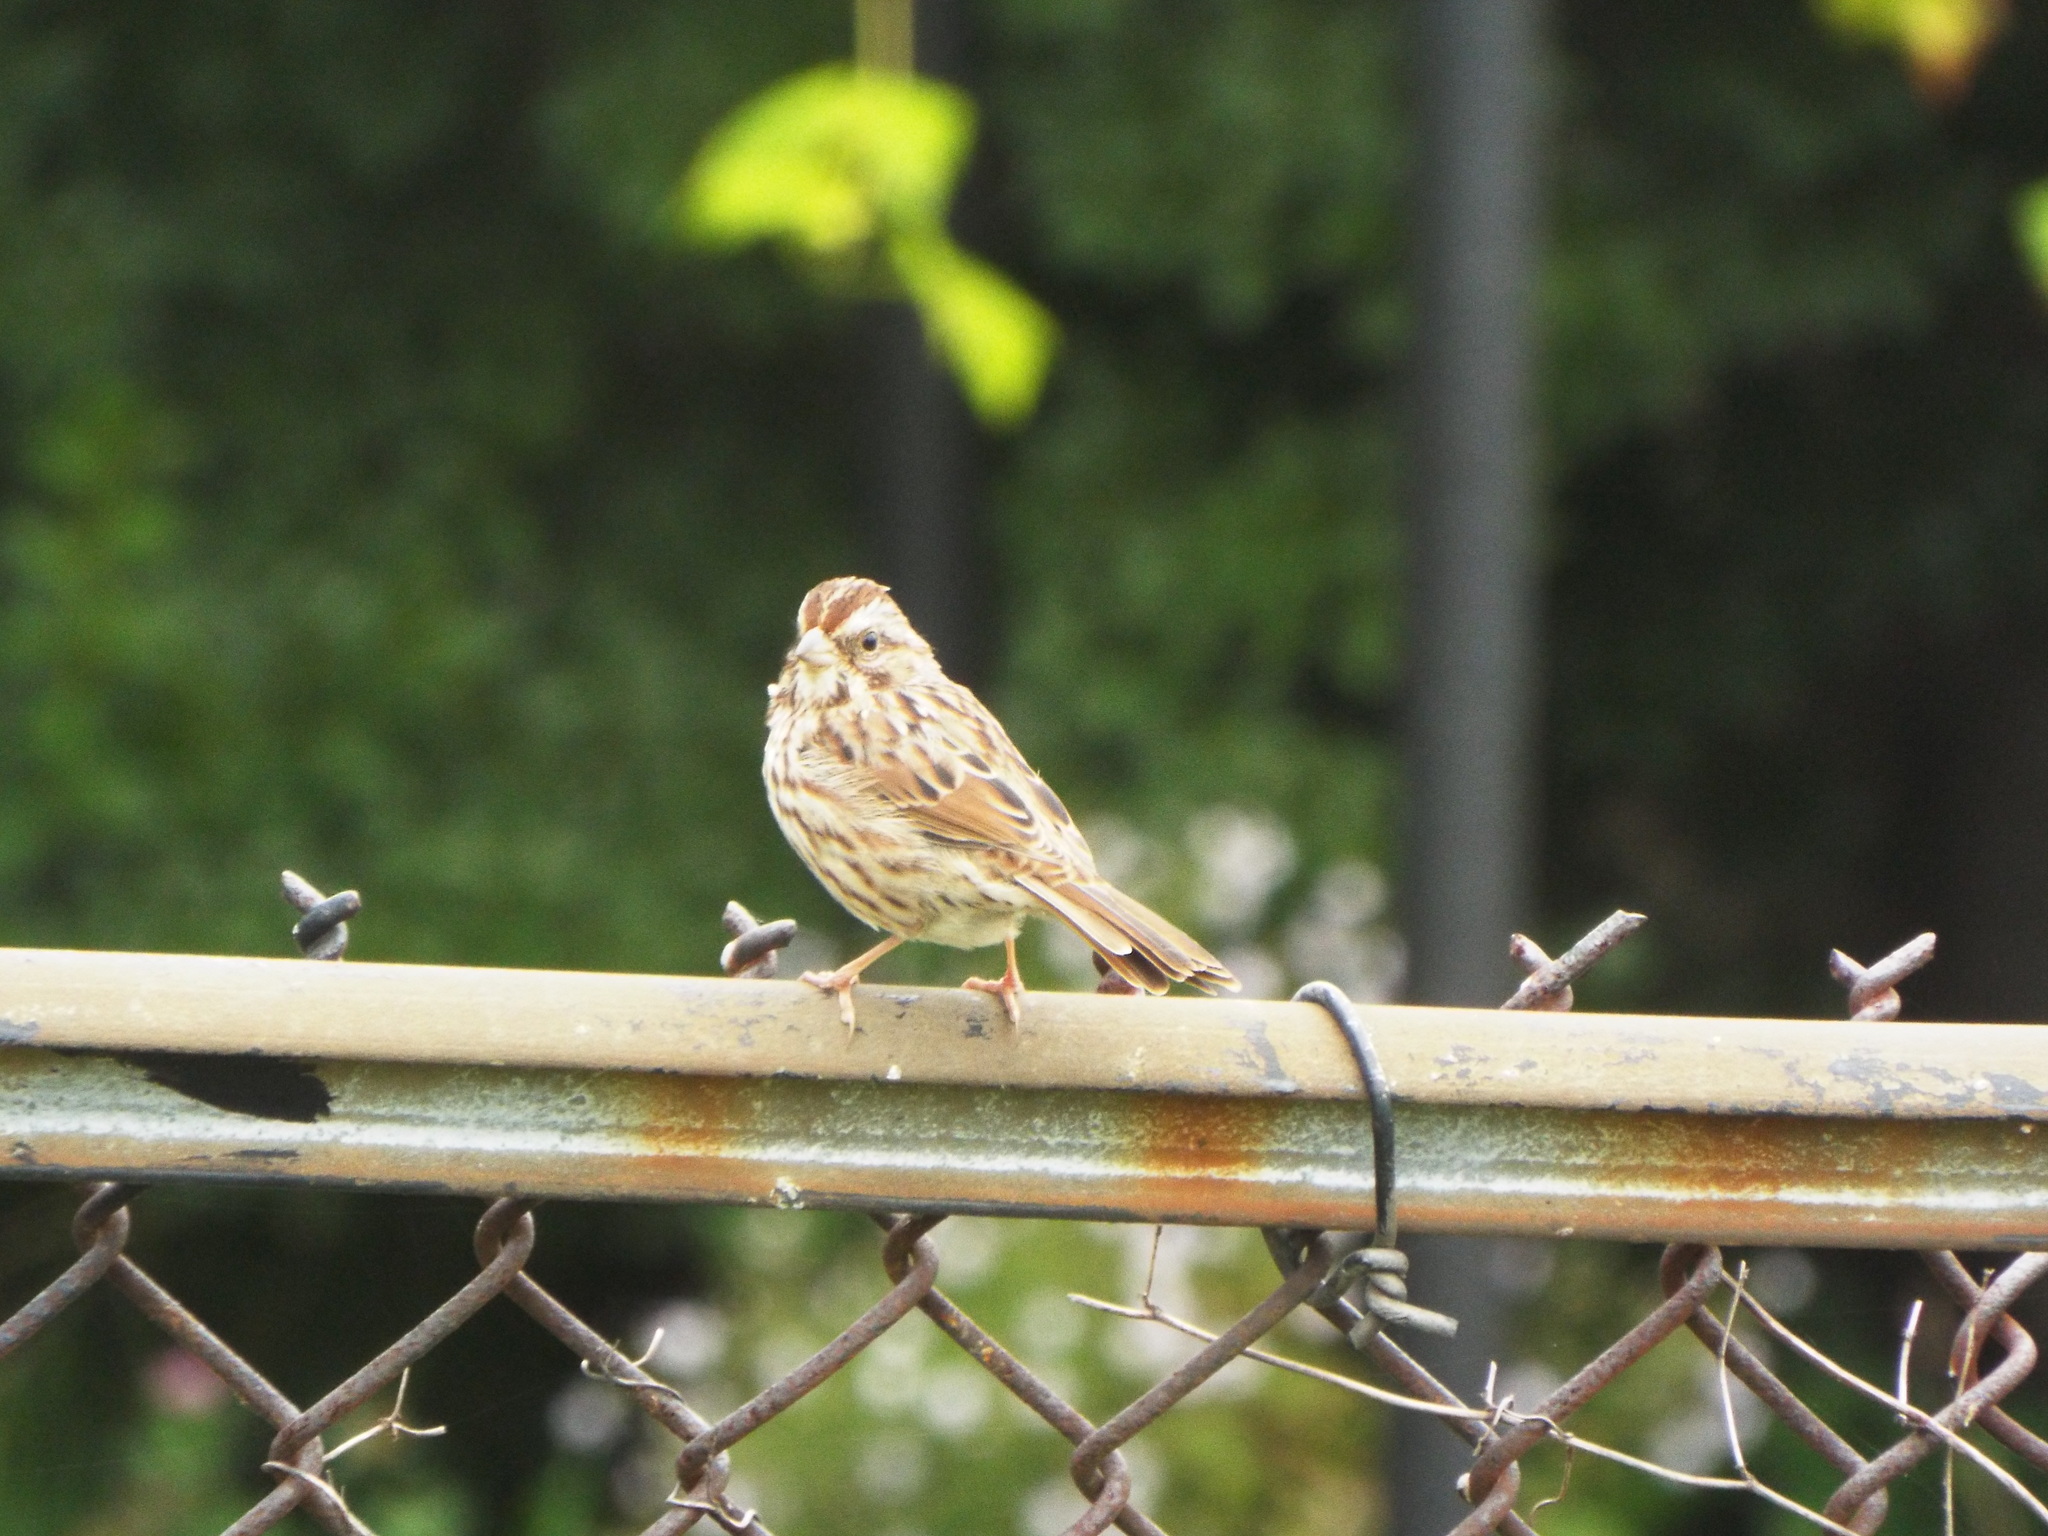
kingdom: Animalia
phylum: Chordata
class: Aves
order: Passeriformes
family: Passerellidae
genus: Melospiza
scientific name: Melospiza melodia
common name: Song sparrow
